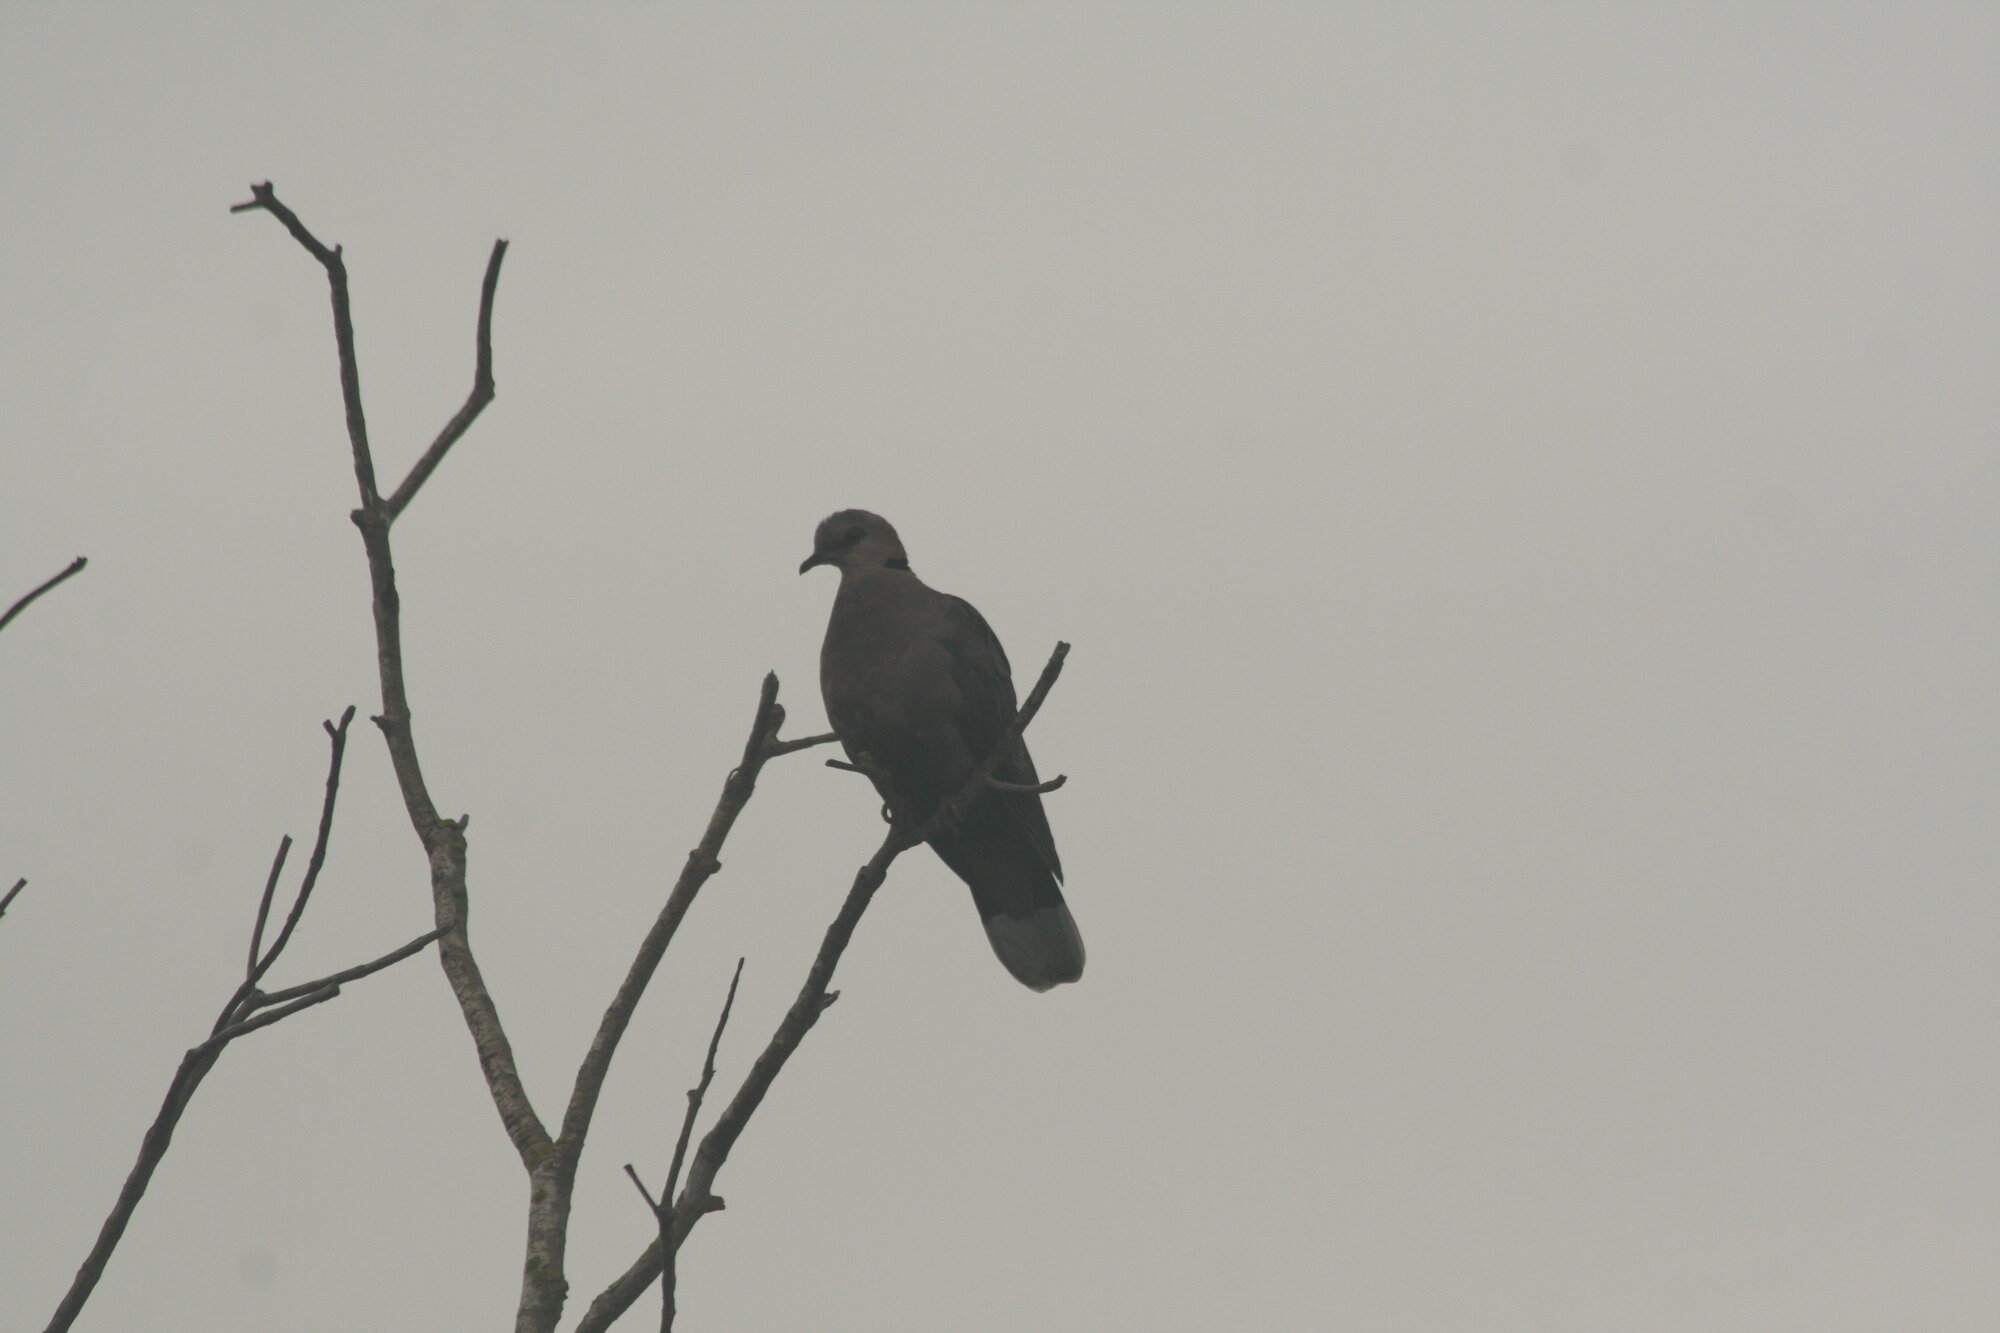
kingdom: Animalia
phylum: Chordata
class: Aves
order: Columbiformes
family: Columbidae
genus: Streptopelia
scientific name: Streptopelia semitorquata
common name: Red-eyed dove
